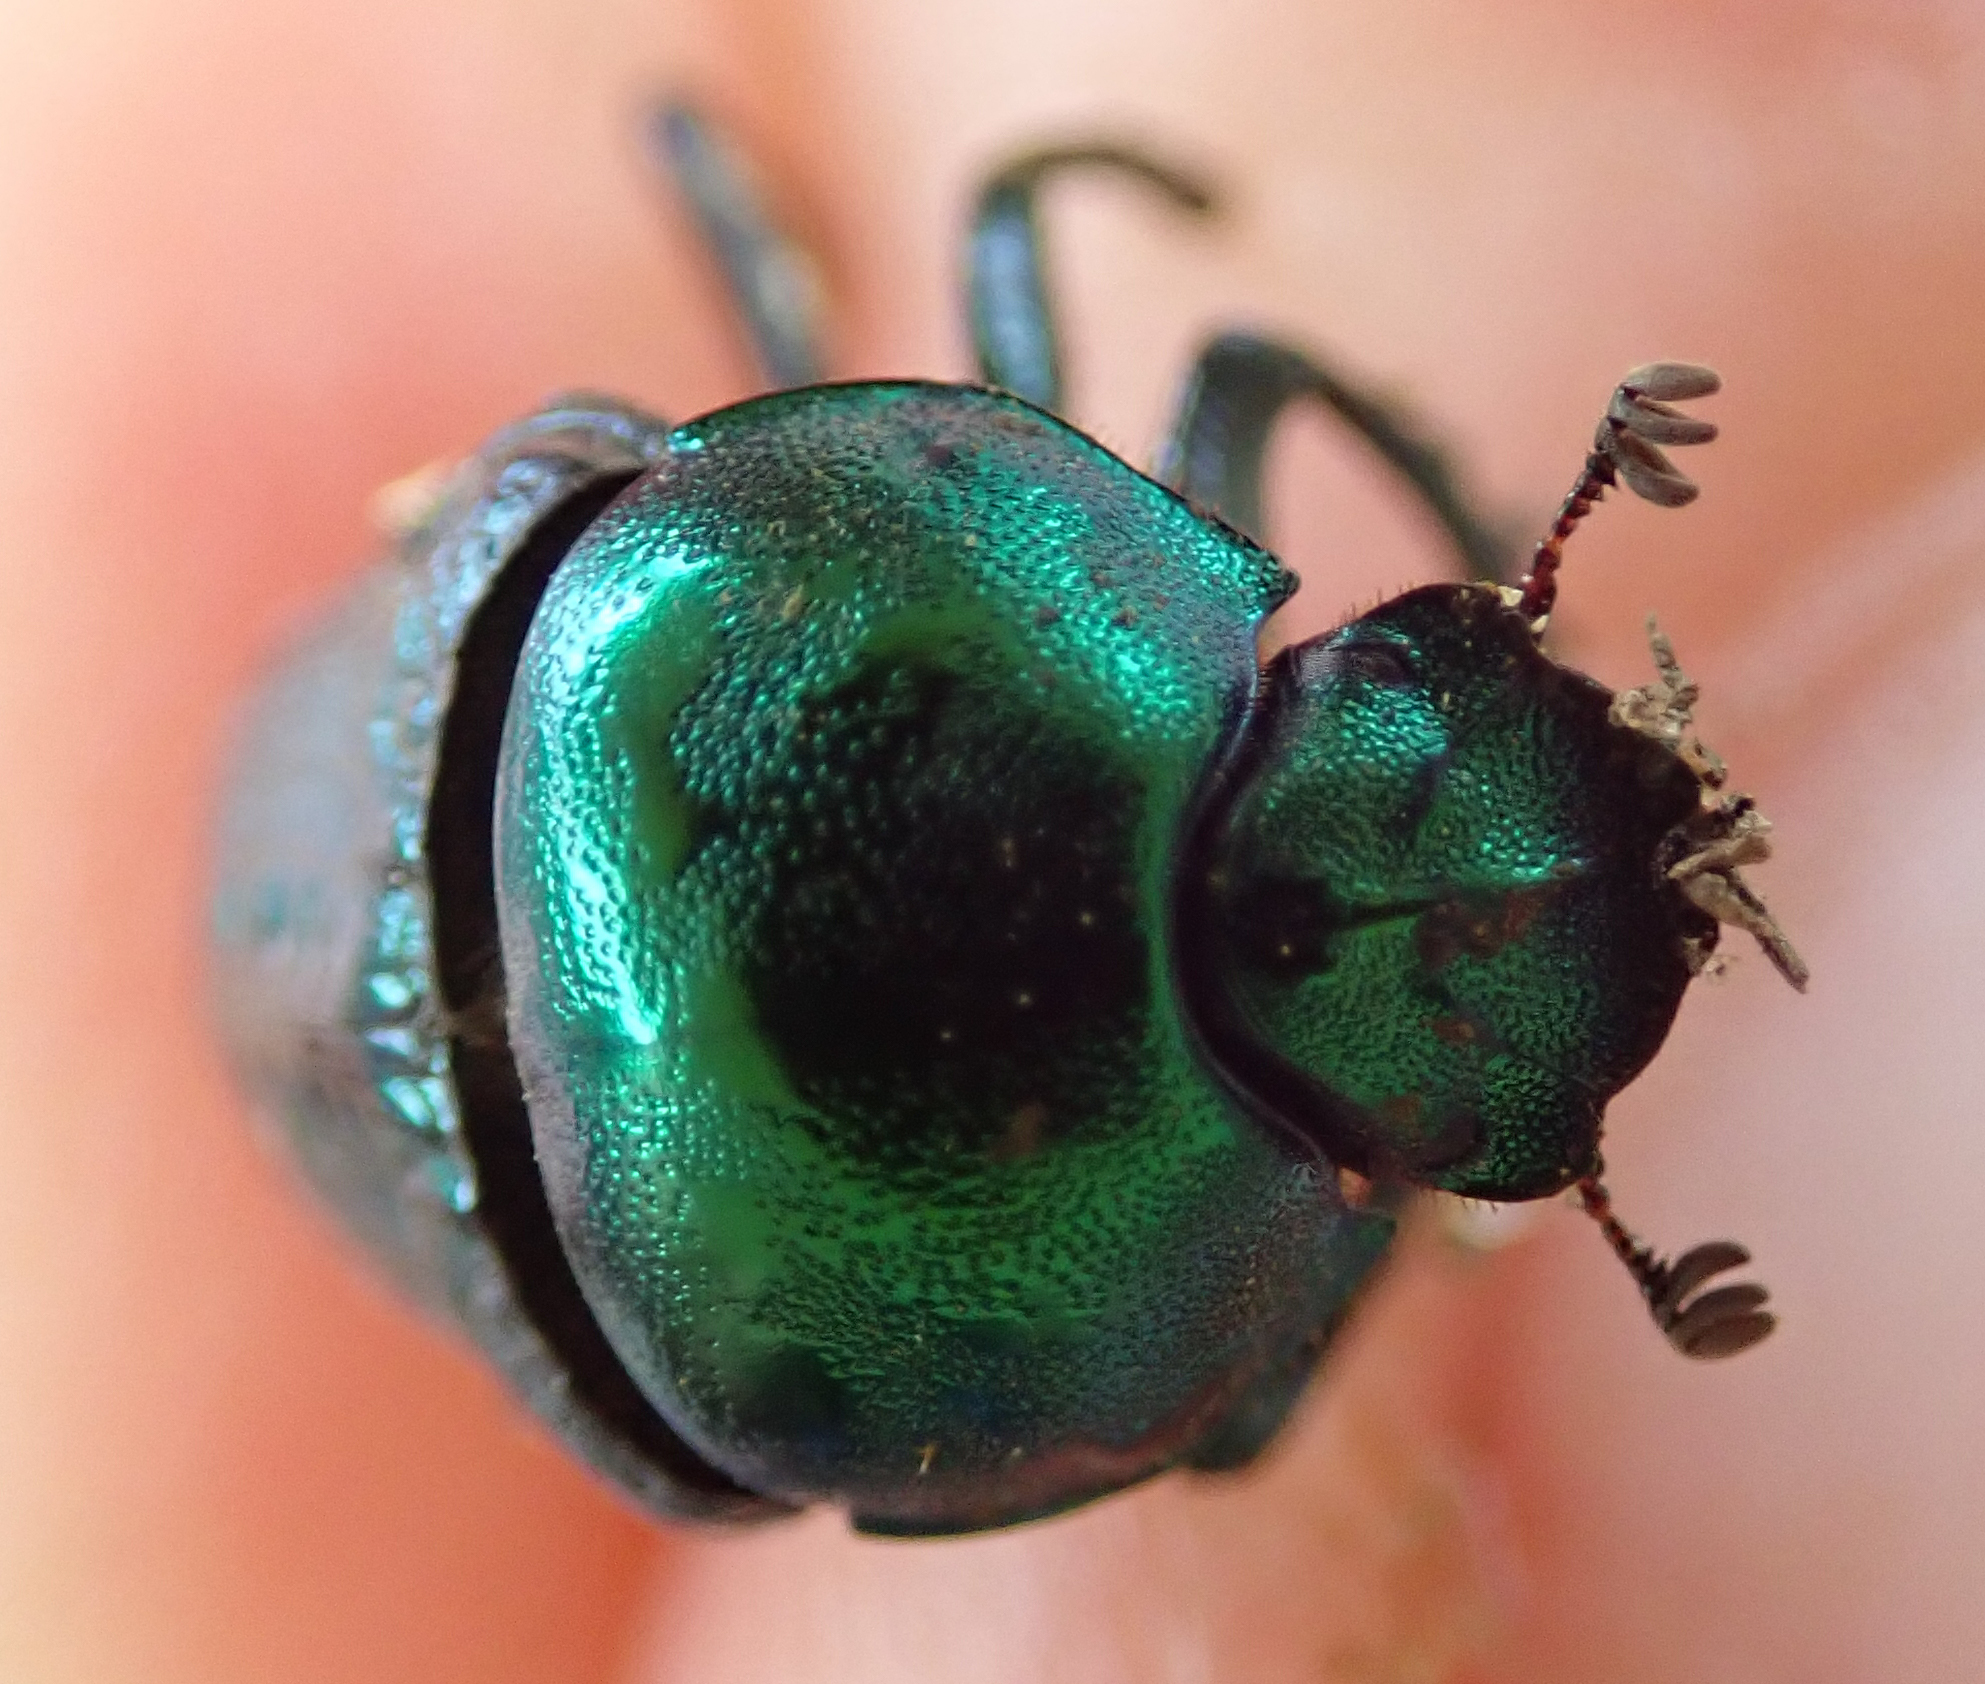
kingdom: Animalia
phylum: Arthropoda
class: Insecta
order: Coleoptera
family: Scarabaeidae
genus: Gymnopleurus
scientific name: Gymnopleurus virens
